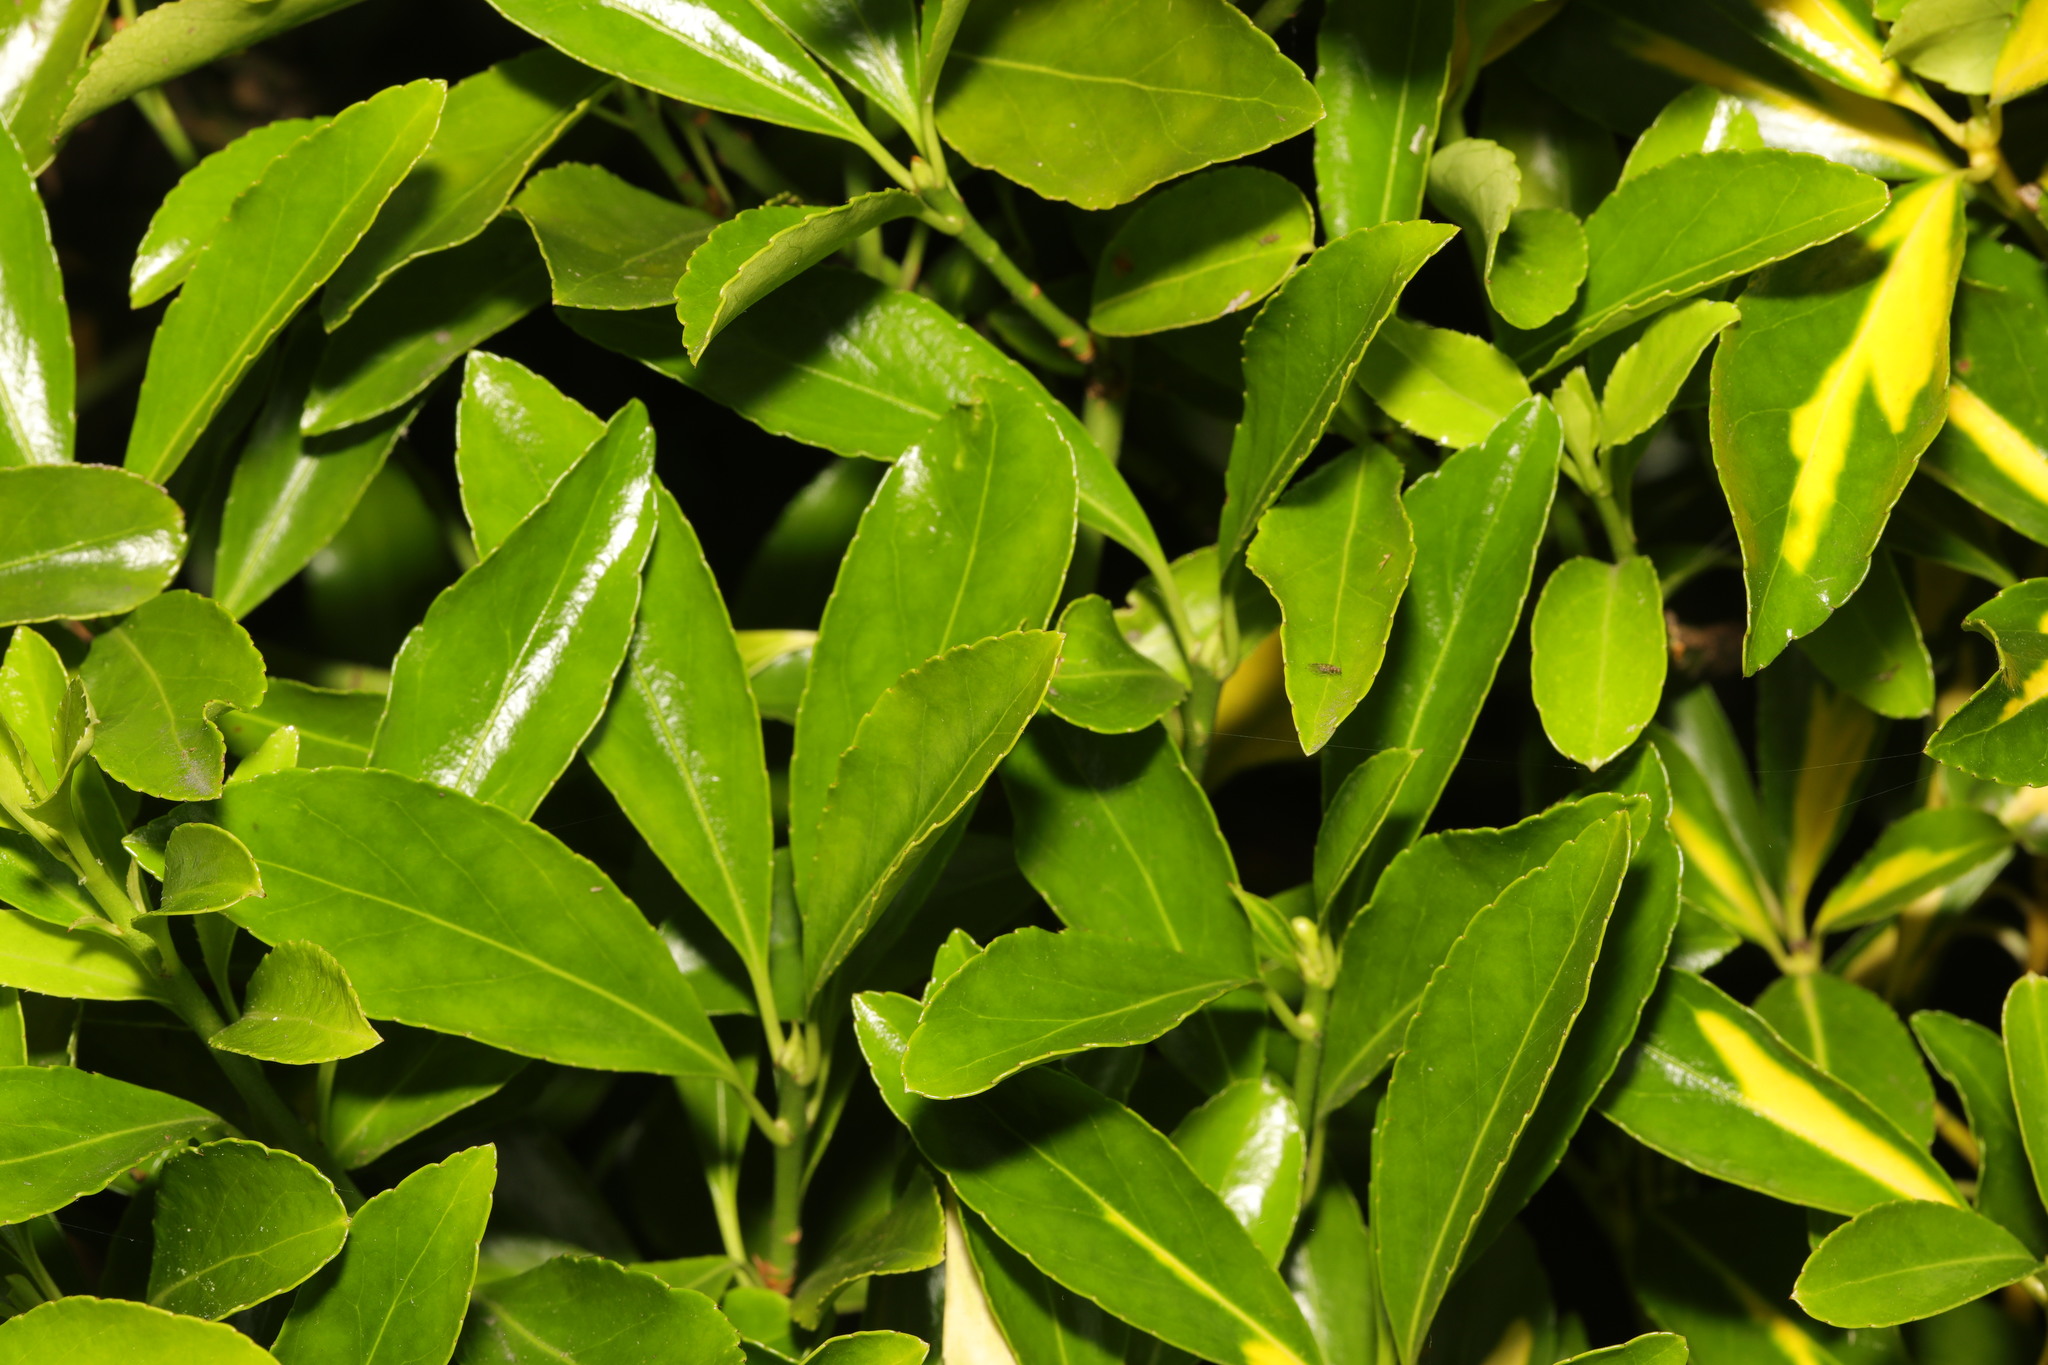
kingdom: Plantae
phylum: Tracheophyta
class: Magnoliopsida
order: Celastrales
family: Celastraceae
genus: Euonymus
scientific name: Euonymus japonicus
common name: Japanese spindletree
